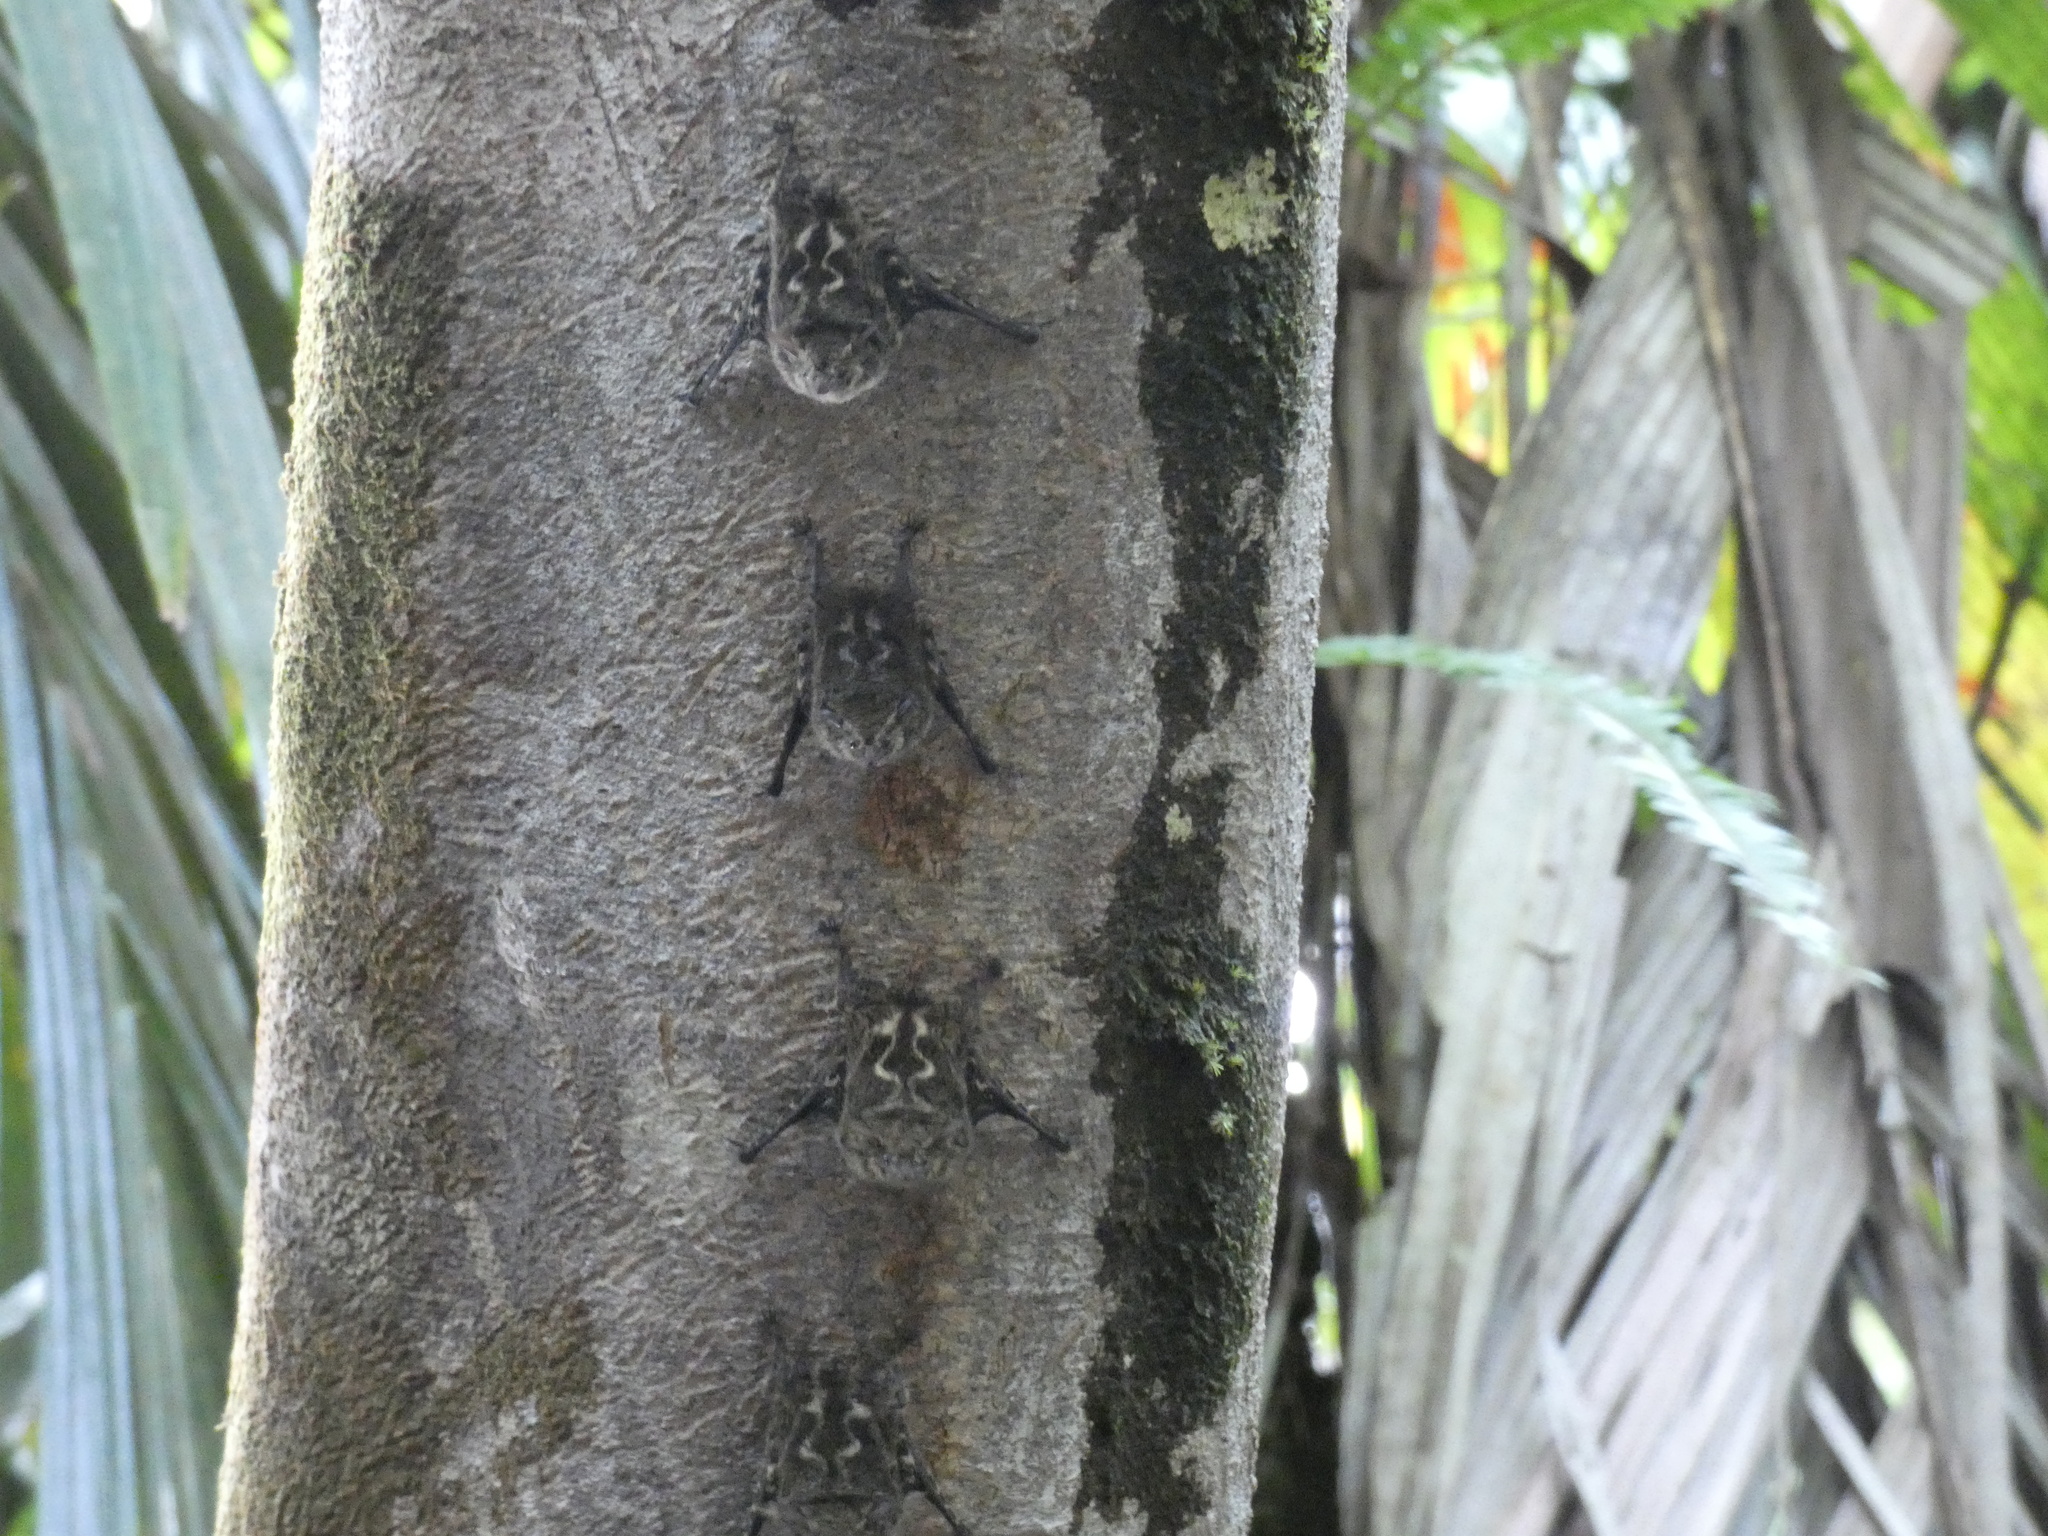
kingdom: Animalia
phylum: Chordata
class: Mammalia
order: Chiroptera
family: Emballonuridae
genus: Rhynchonycteris
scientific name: Rhynchonycteris naso
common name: Proboscis bat
